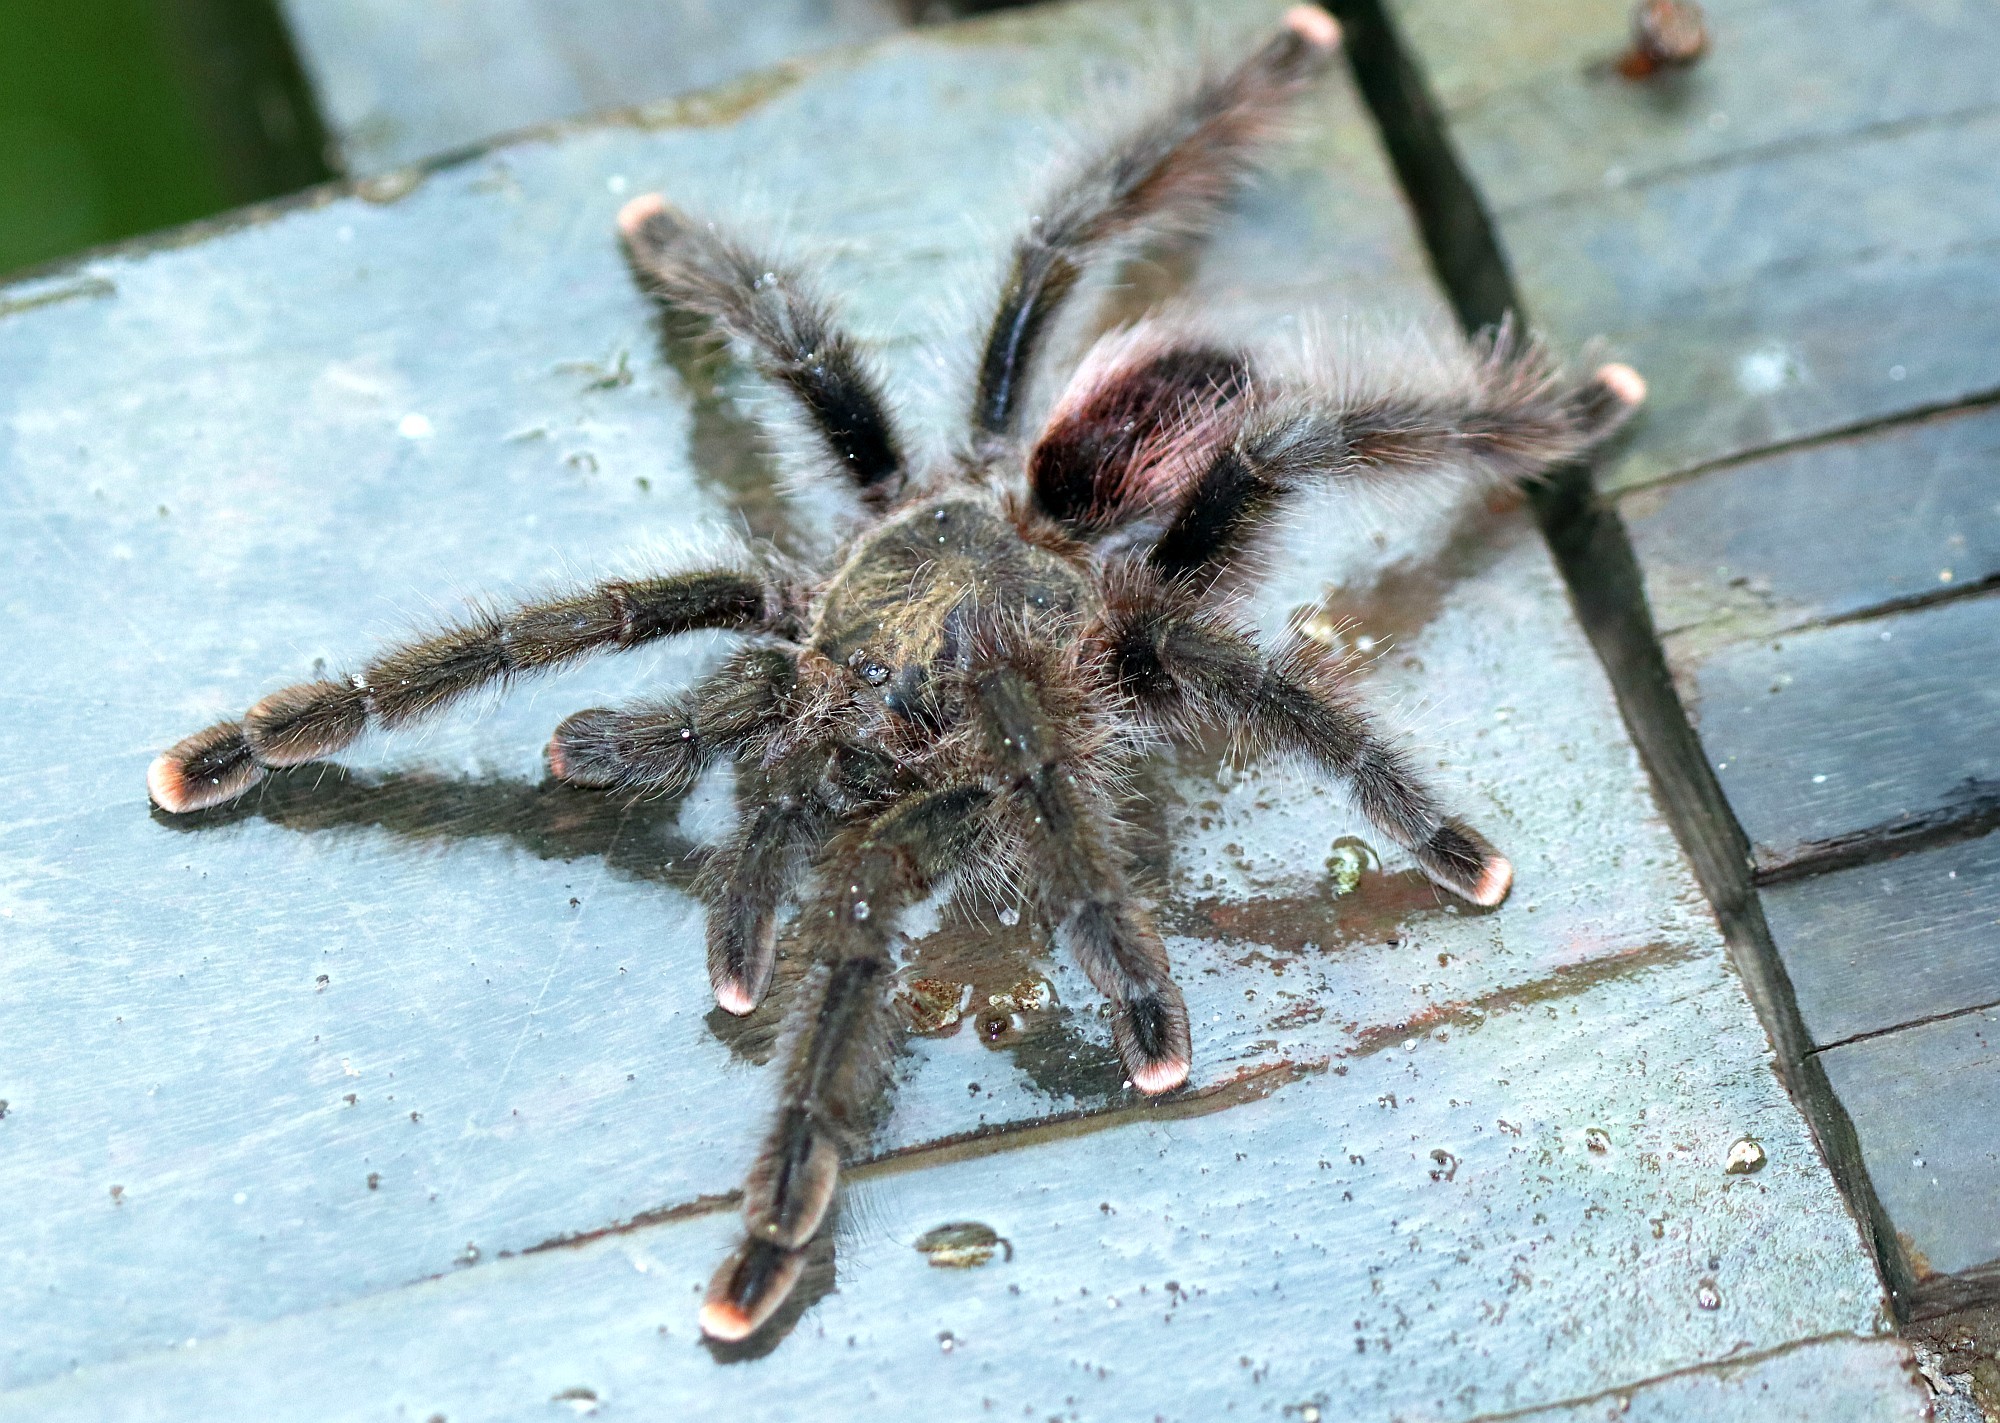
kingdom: Animalia
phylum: Arthropoda
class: Arachnida
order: Araneae
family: Theraphosidae
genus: Avicularia
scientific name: Avicularia juruensis
